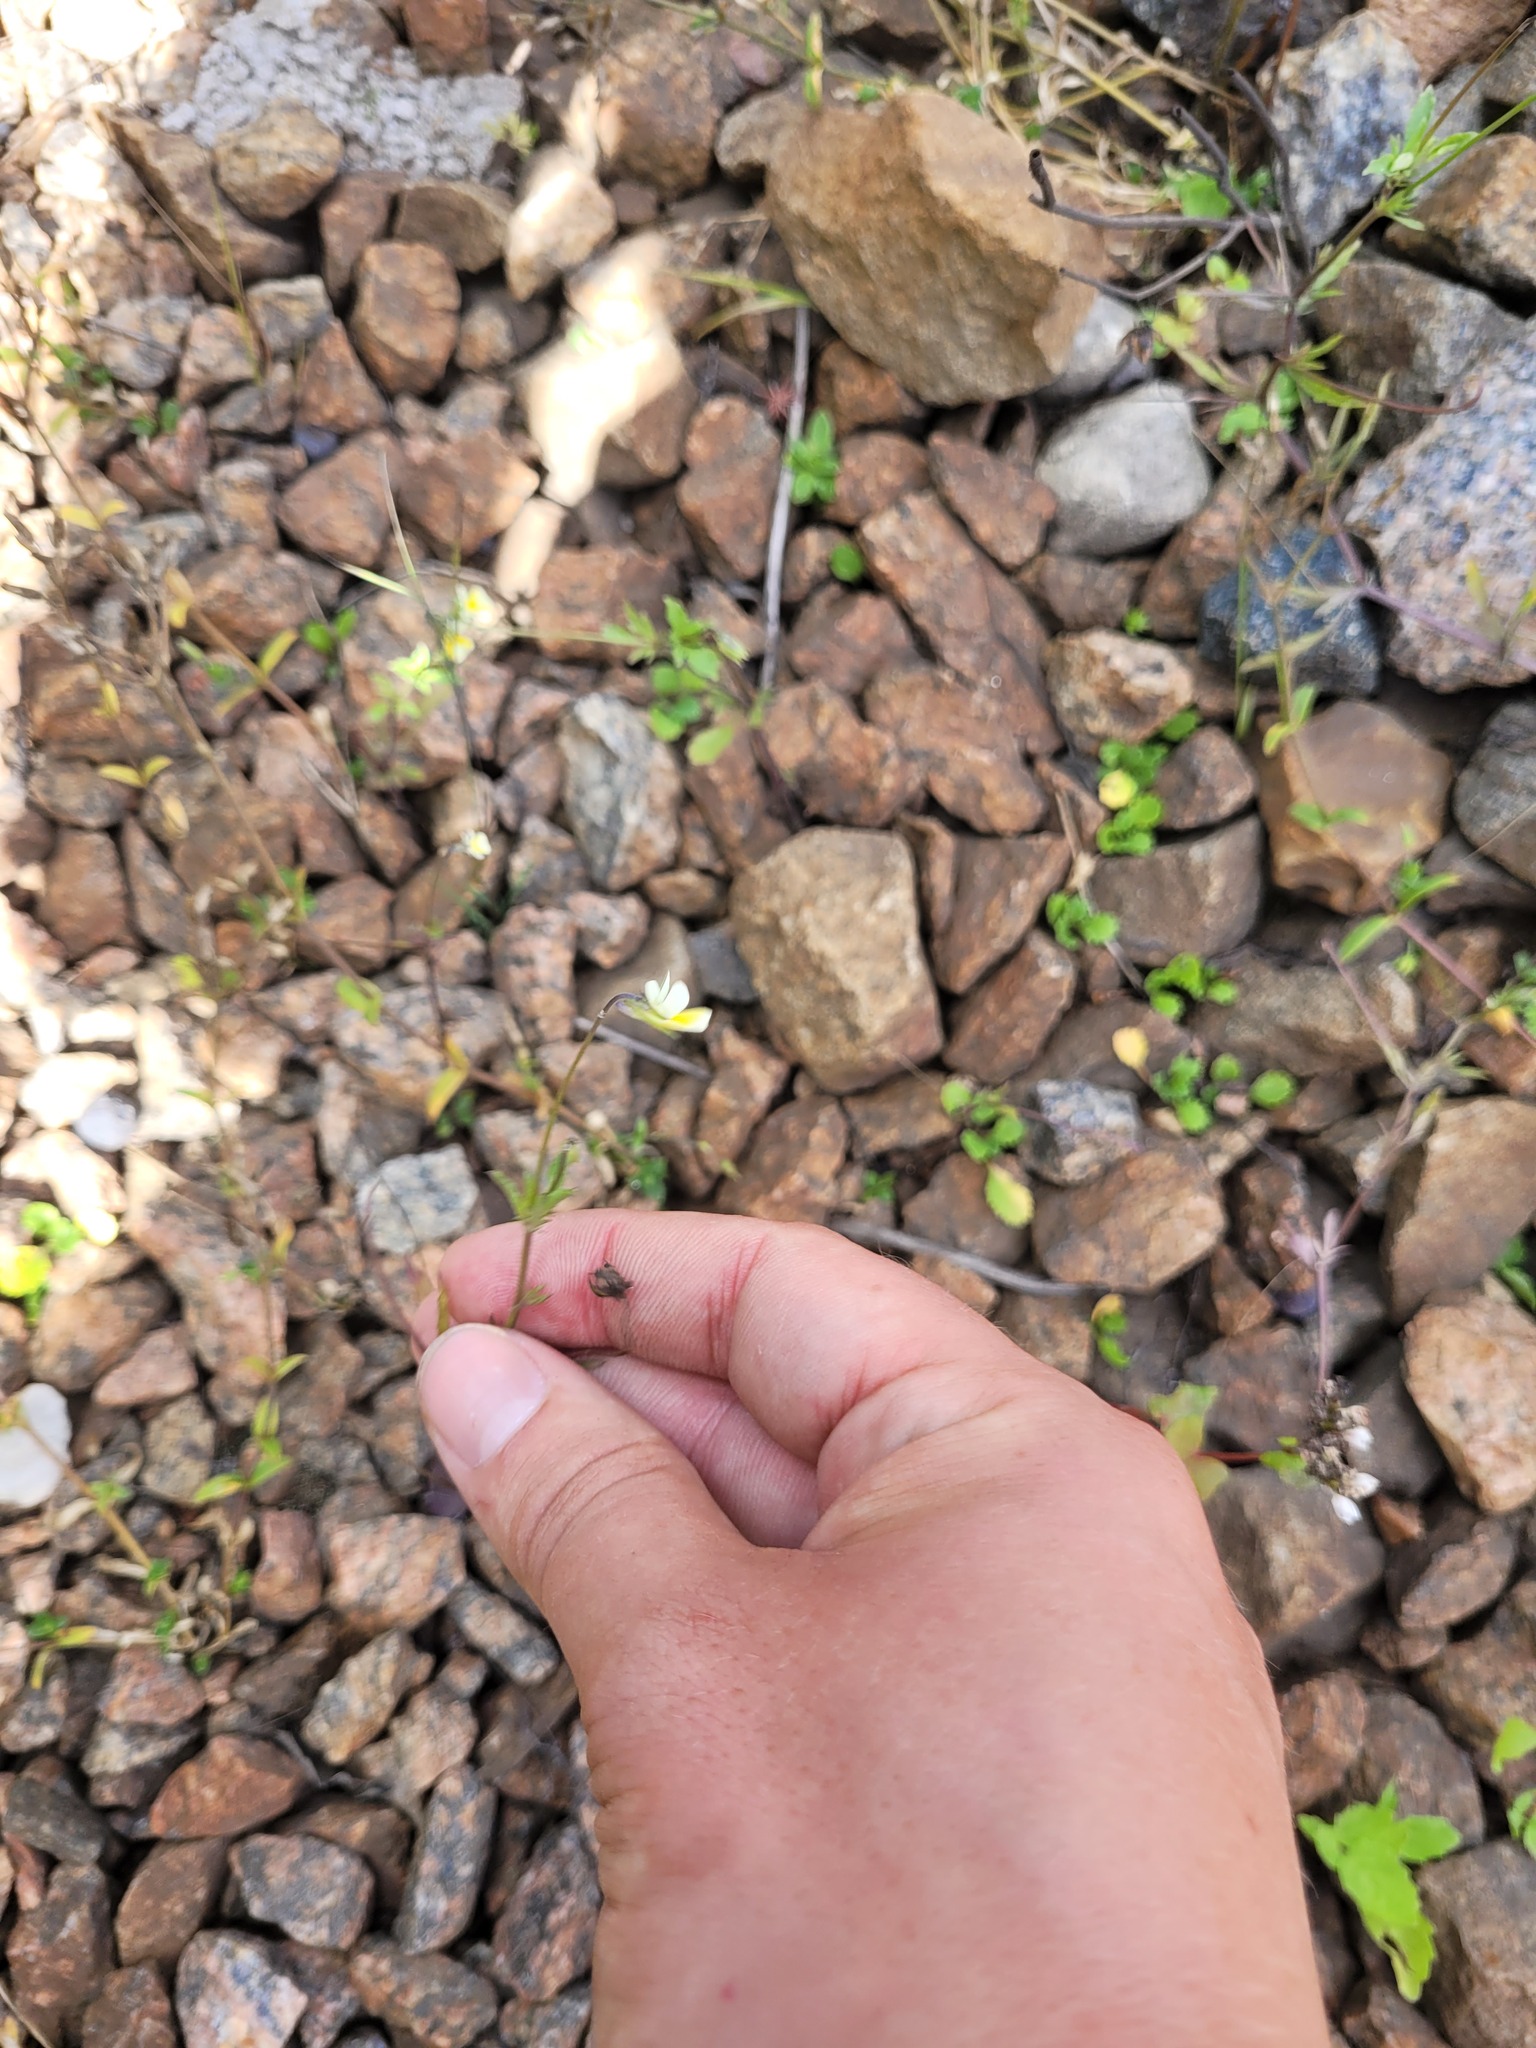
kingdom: Plantae
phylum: Tracheophyta
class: Magnoliopsida
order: Malpighiales
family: Violaceae
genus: Viola
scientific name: Viola arvensis
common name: Field pansy
